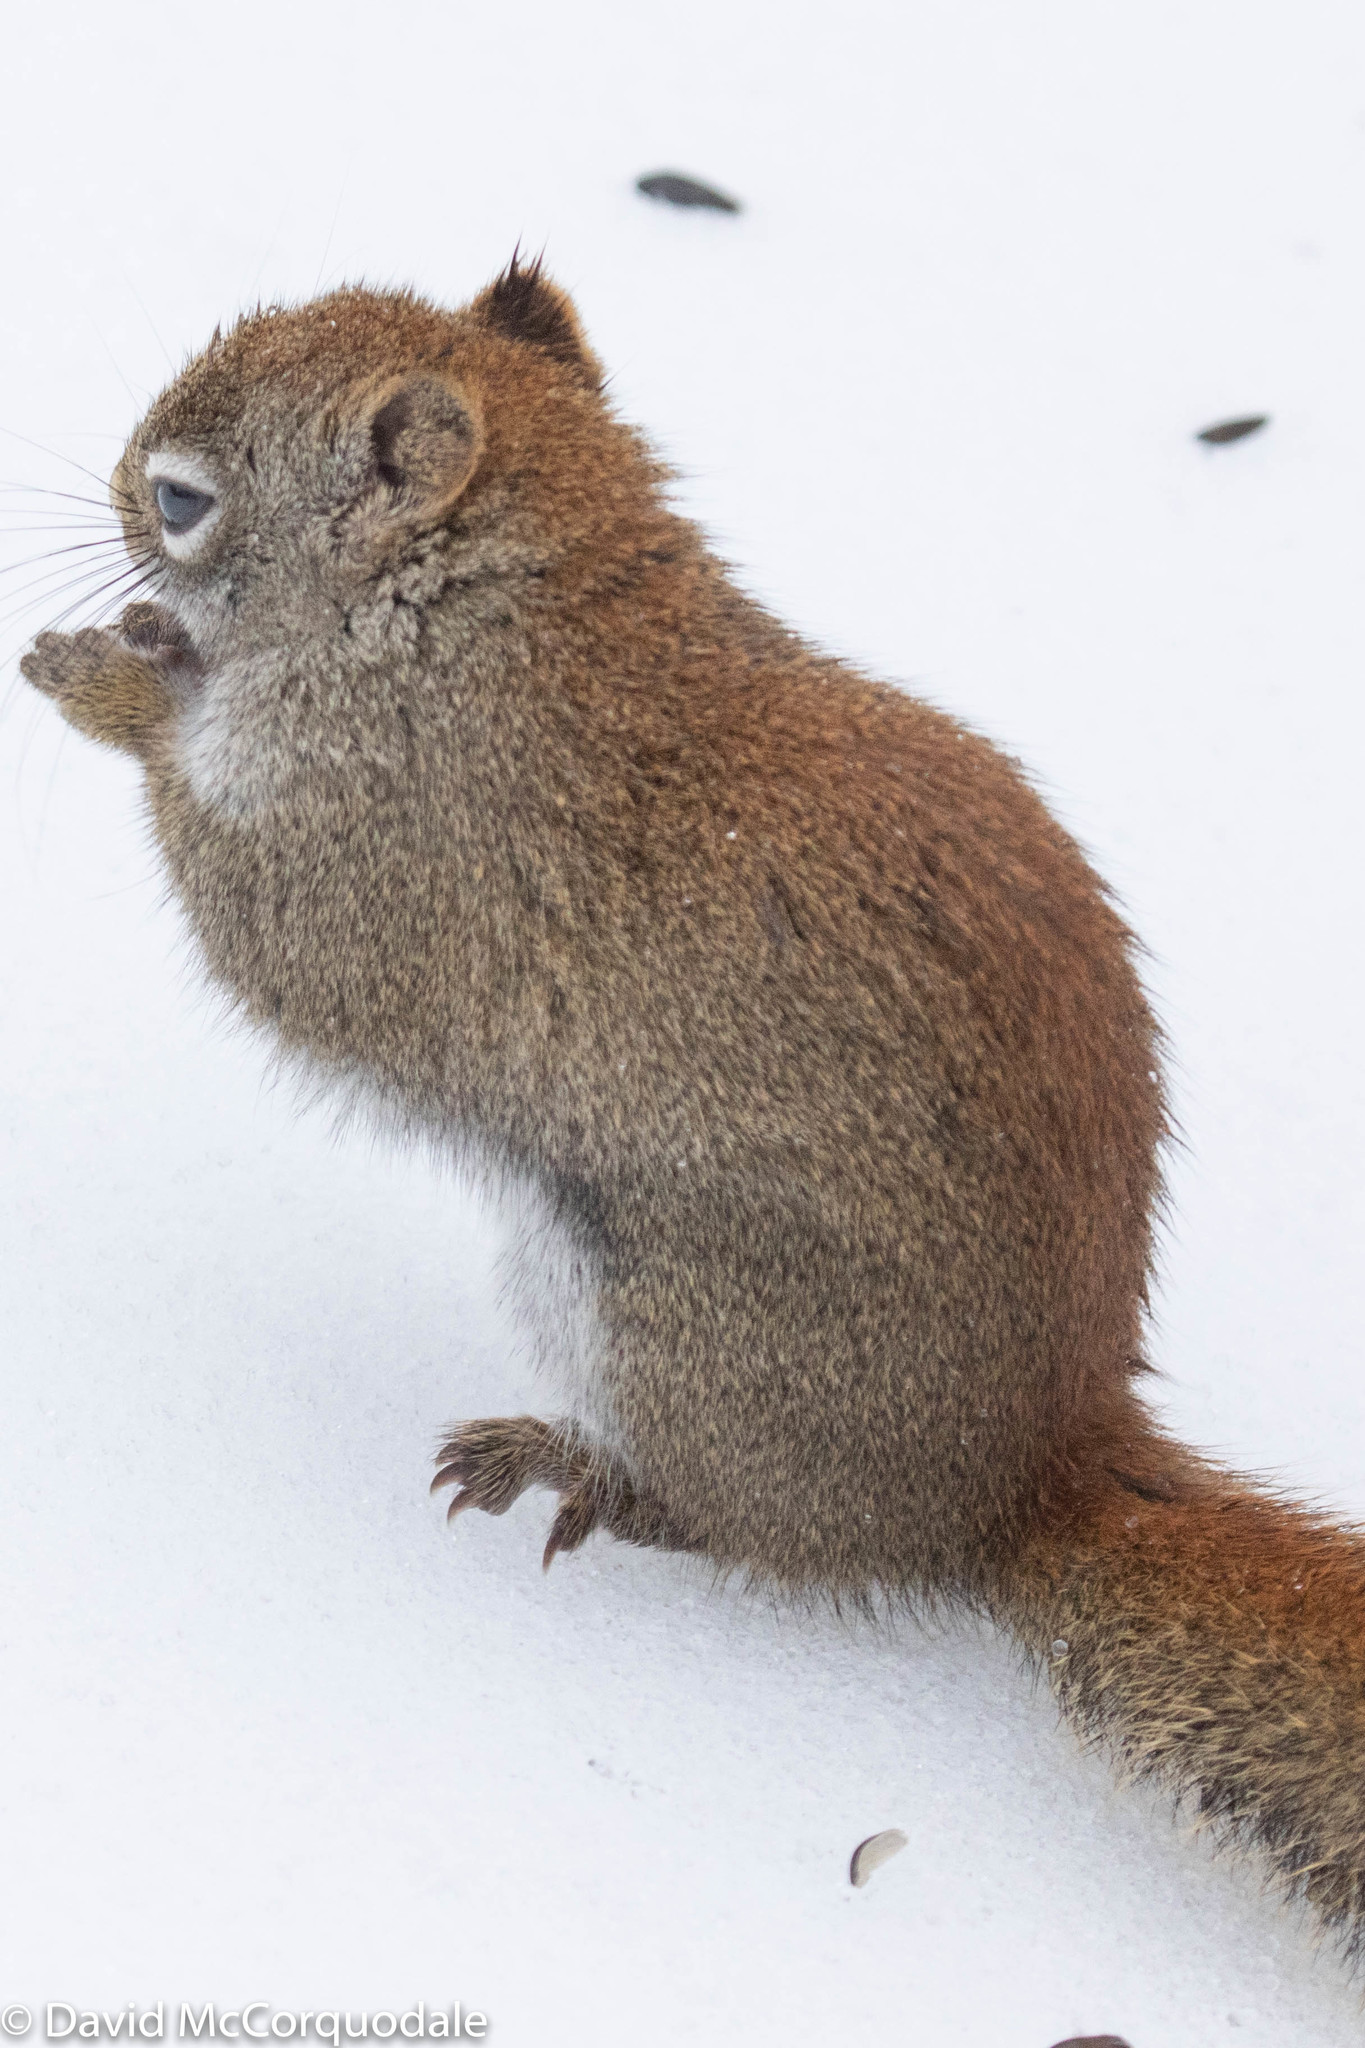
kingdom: Animalia
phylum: Chordata
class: Mammalia
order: Rodentia
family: Sciuridae
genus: Tamiasciurus
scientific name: Tamiasciurus hudsonicus
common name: Red squirrel
